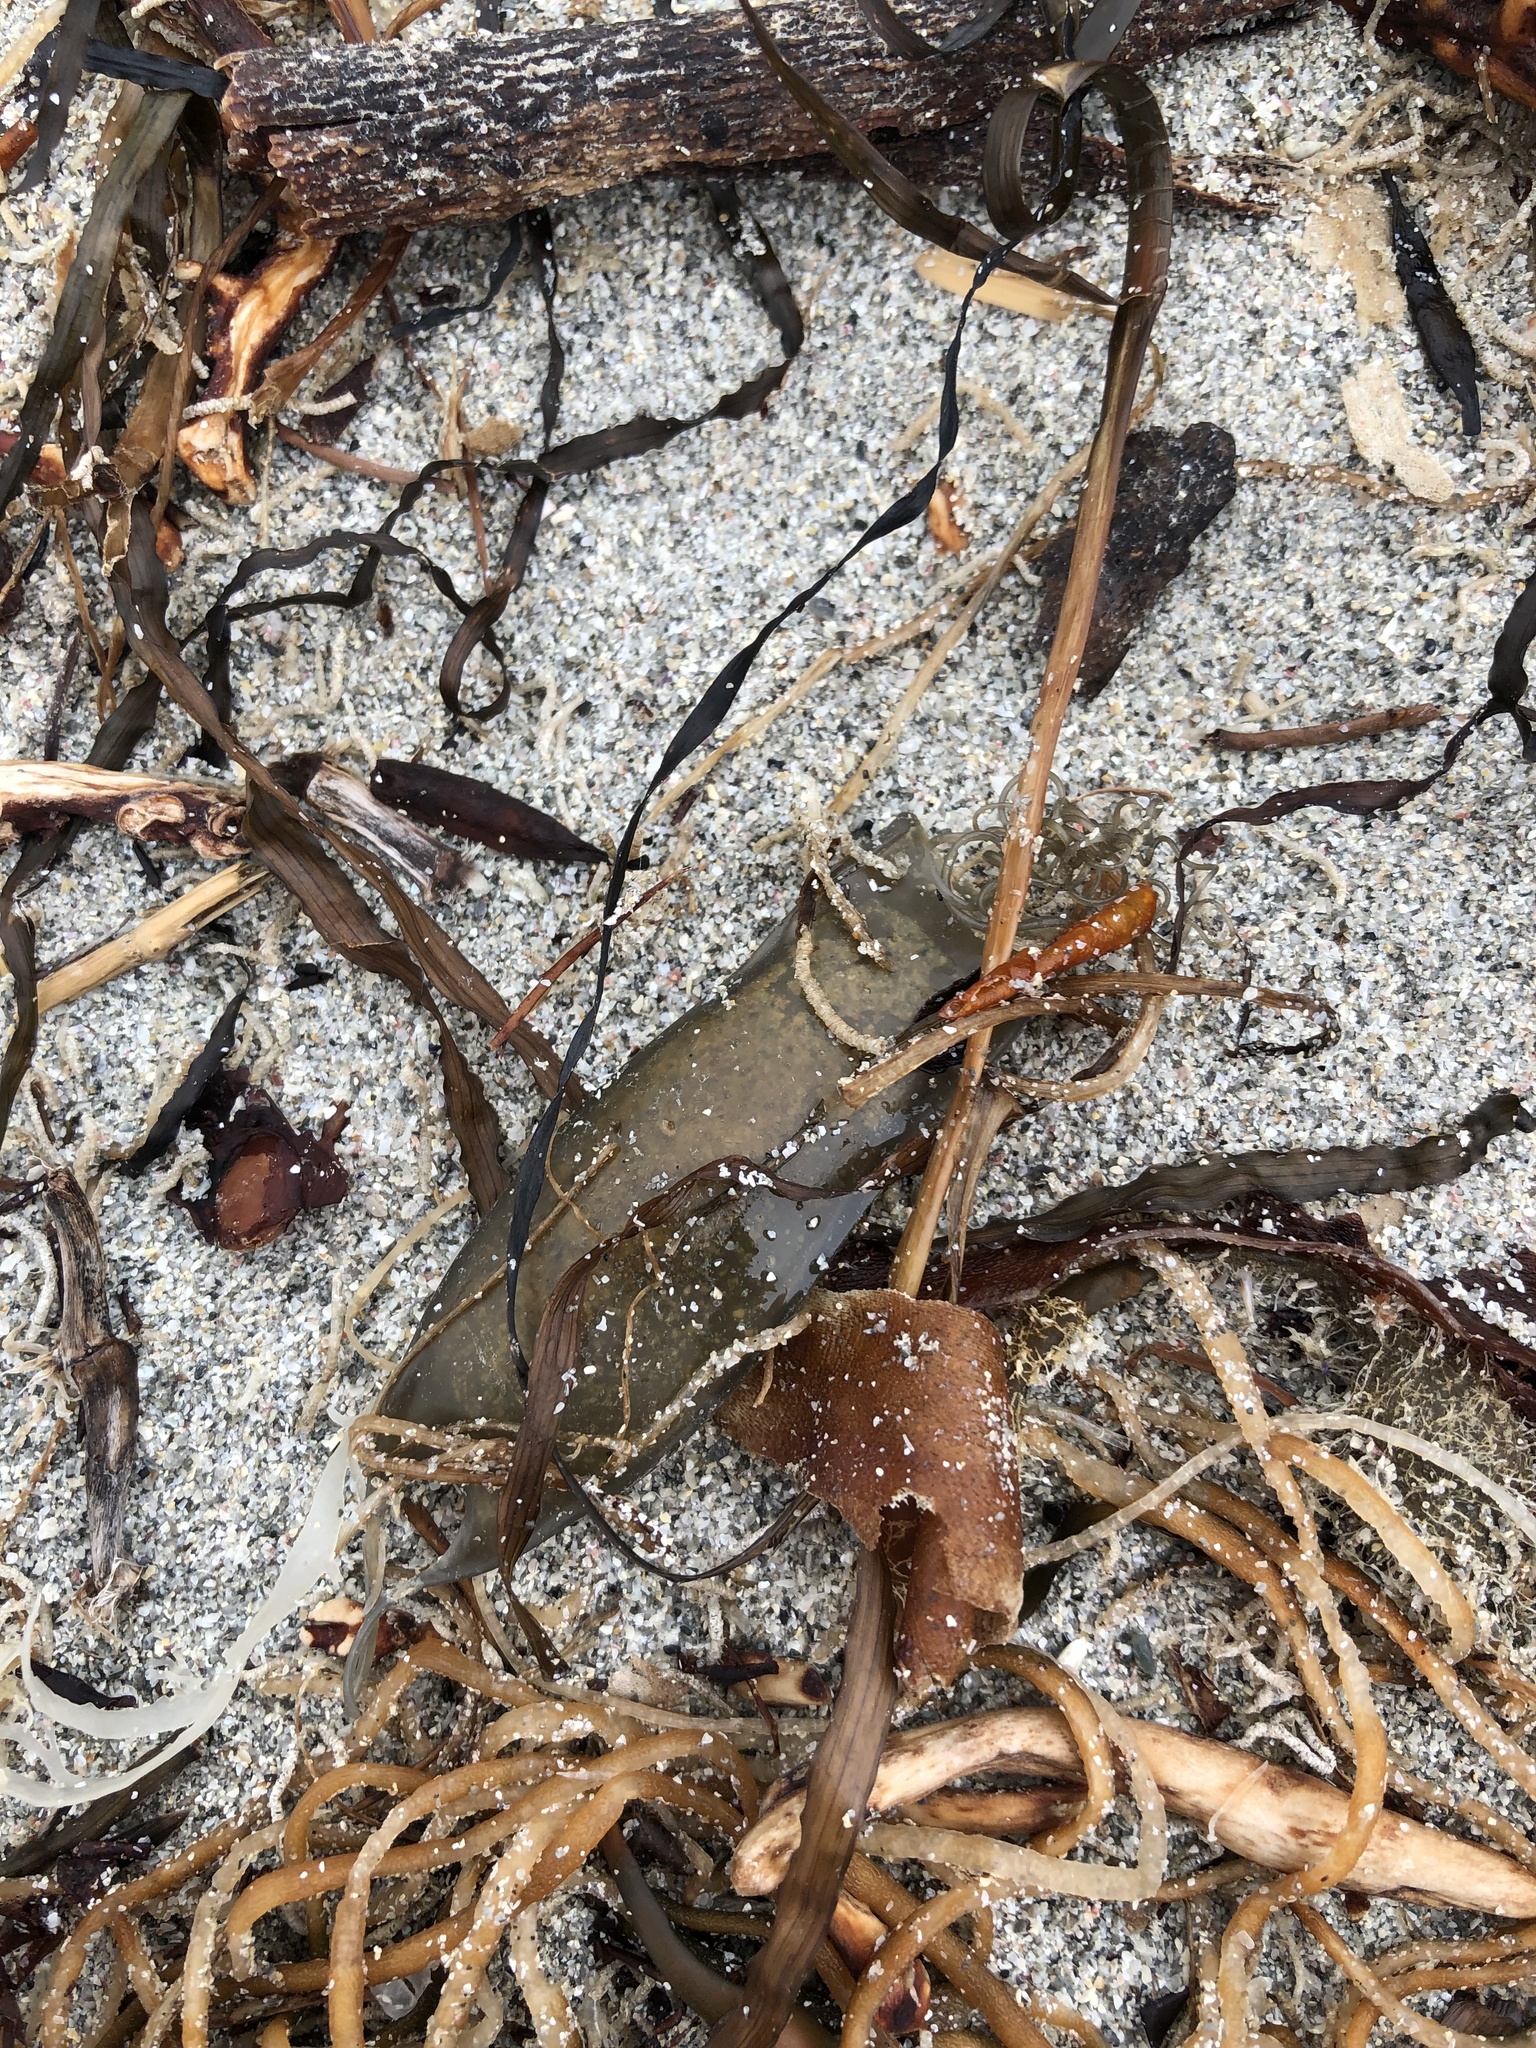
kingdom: Animalia
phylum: Chordata
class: Elasmobranchii
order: Carcharhiniformes
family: Scyliorhinidae
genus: Scyliorhinus
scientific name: Scyliorhinus canicula
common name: Lesser spotted dogfish
